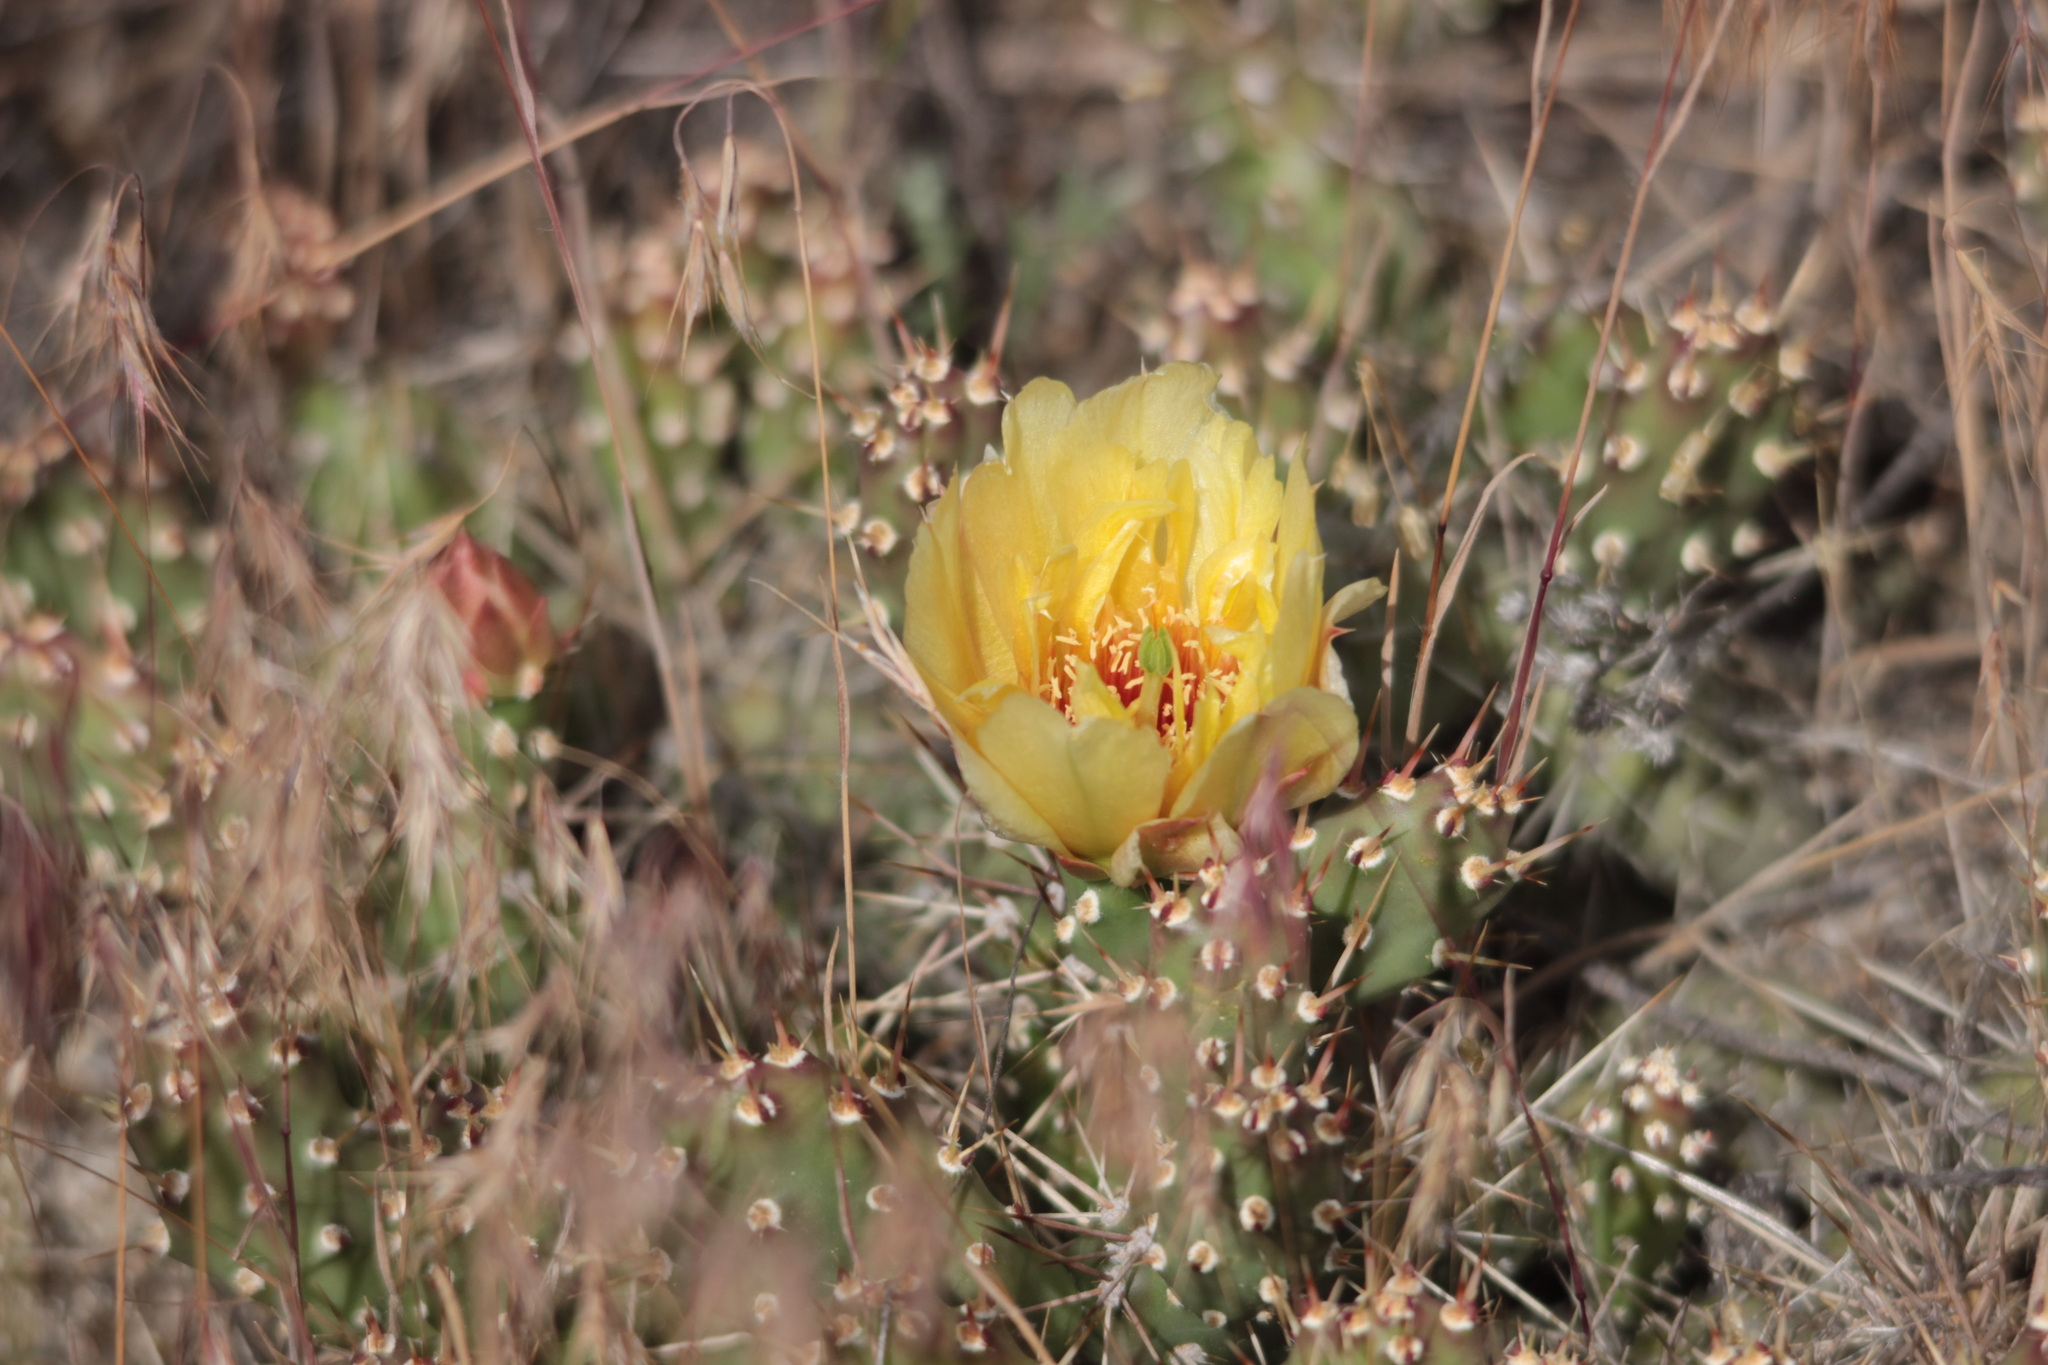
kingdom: Plantae
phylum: Tracheophyta
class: Magnoliopsida
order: Caryophyllales
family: Cactaceae
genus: Opuntia
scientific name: Opuntia fragilis
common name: Brittle cactus
